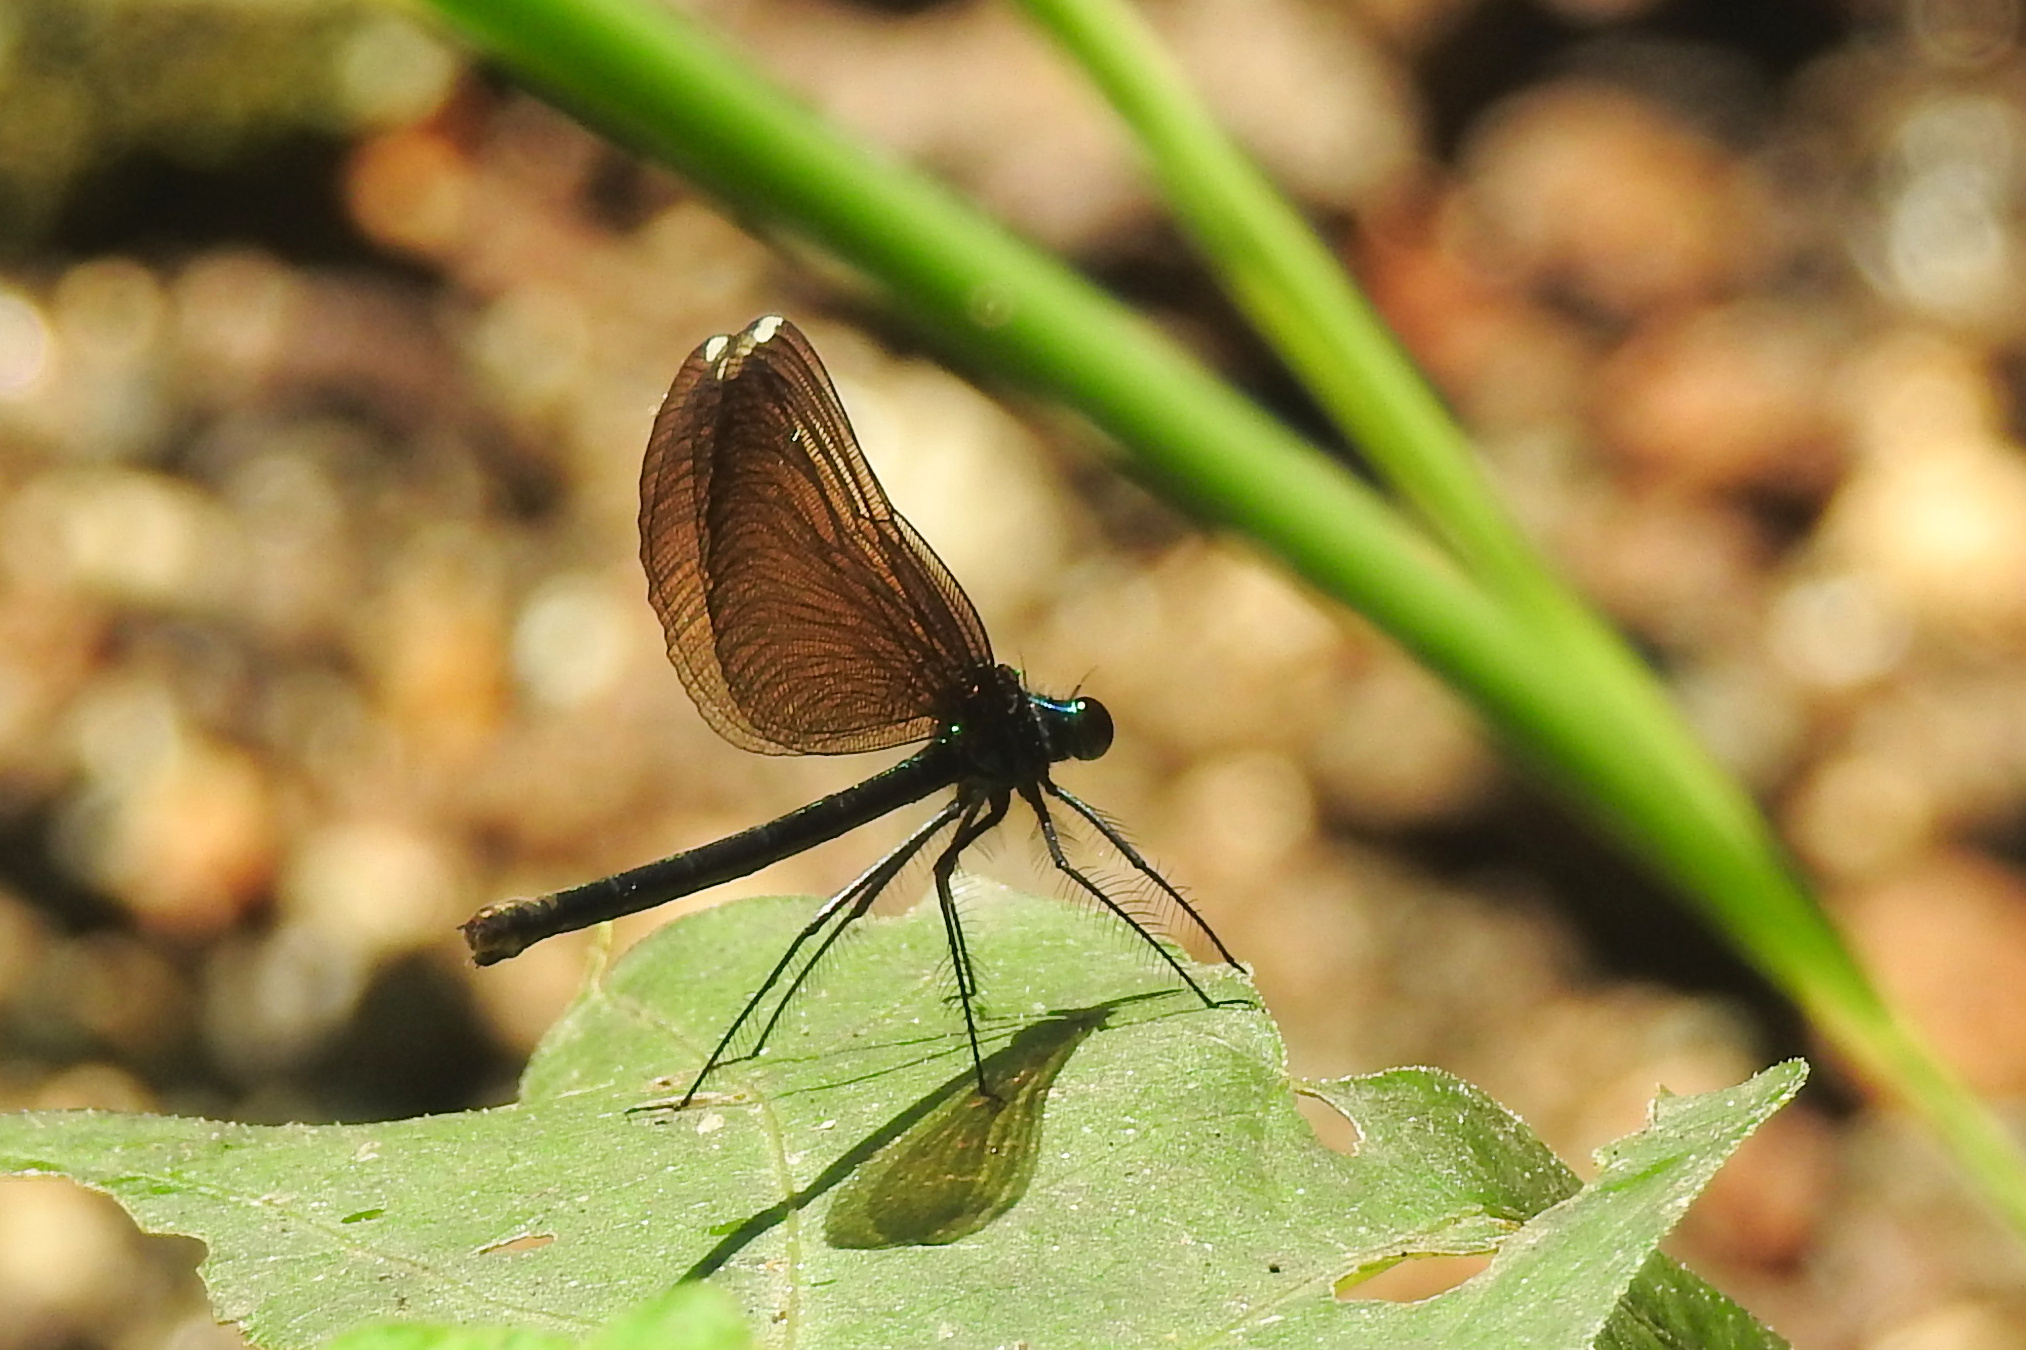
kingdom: Animalia
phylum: Arthropoda
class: Insecta
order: Odonata
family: Calopterygidae
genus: Calopteryx
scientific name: Calopteryx maculata
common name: Ebony jewelwing
